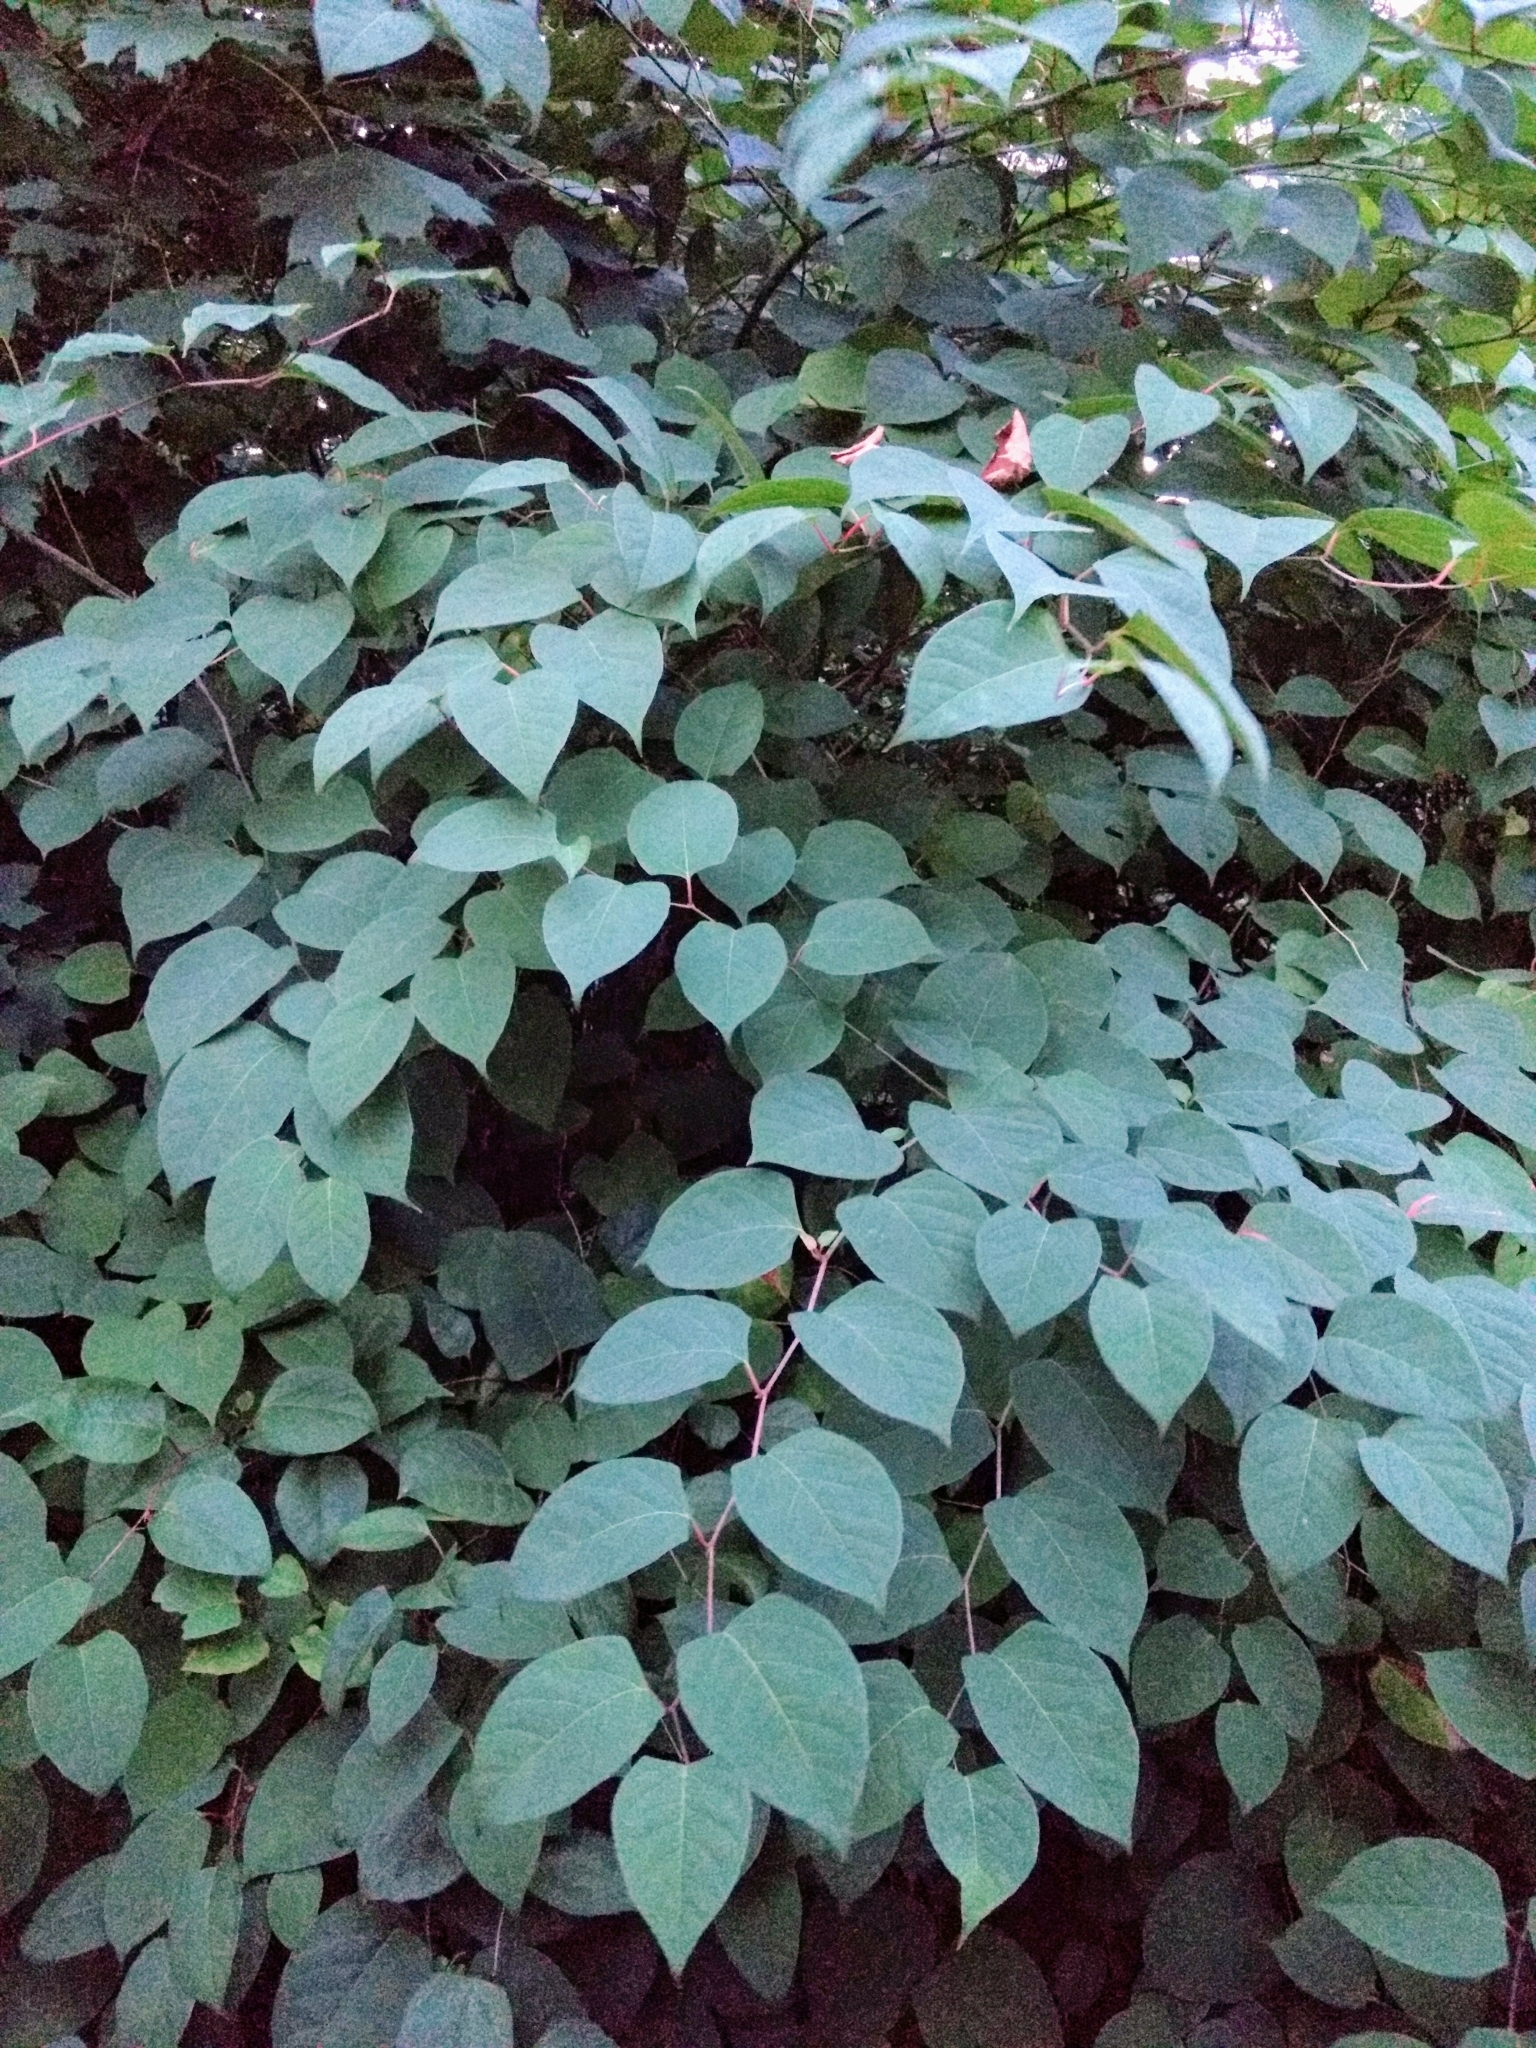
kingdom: Plantae
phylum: Tracheophyta
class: Magnoliopsida
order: Caryophyllales
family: Polygonaceae
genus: Reynoutria
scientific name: Reynoutria japonica
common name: Japanese knotweed
